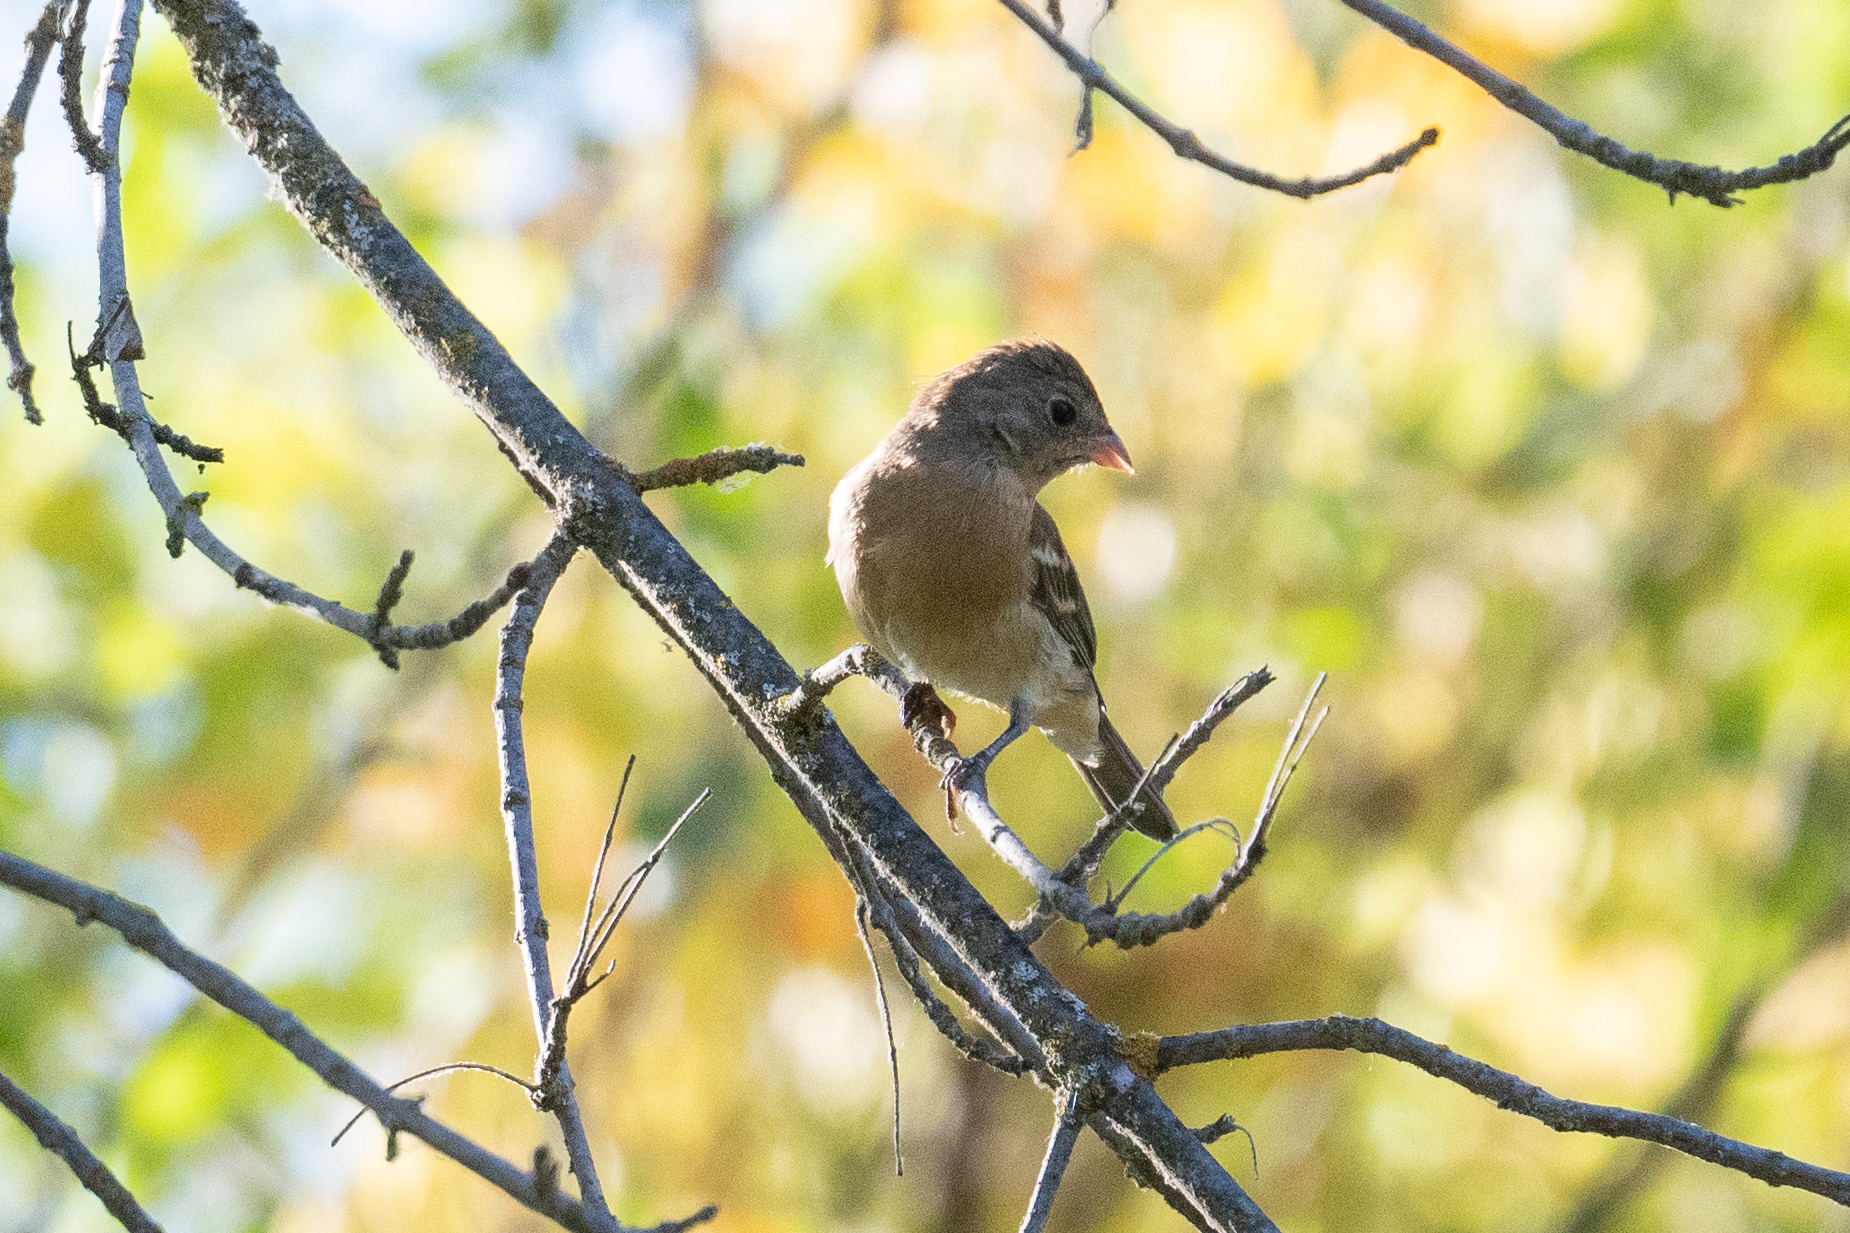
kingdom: Animalia
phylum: Chordata
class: Aves
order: Passeriformes
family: Cardinalidae
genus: Passerina
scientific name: Passerina amoena
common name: Lazuli bunting
